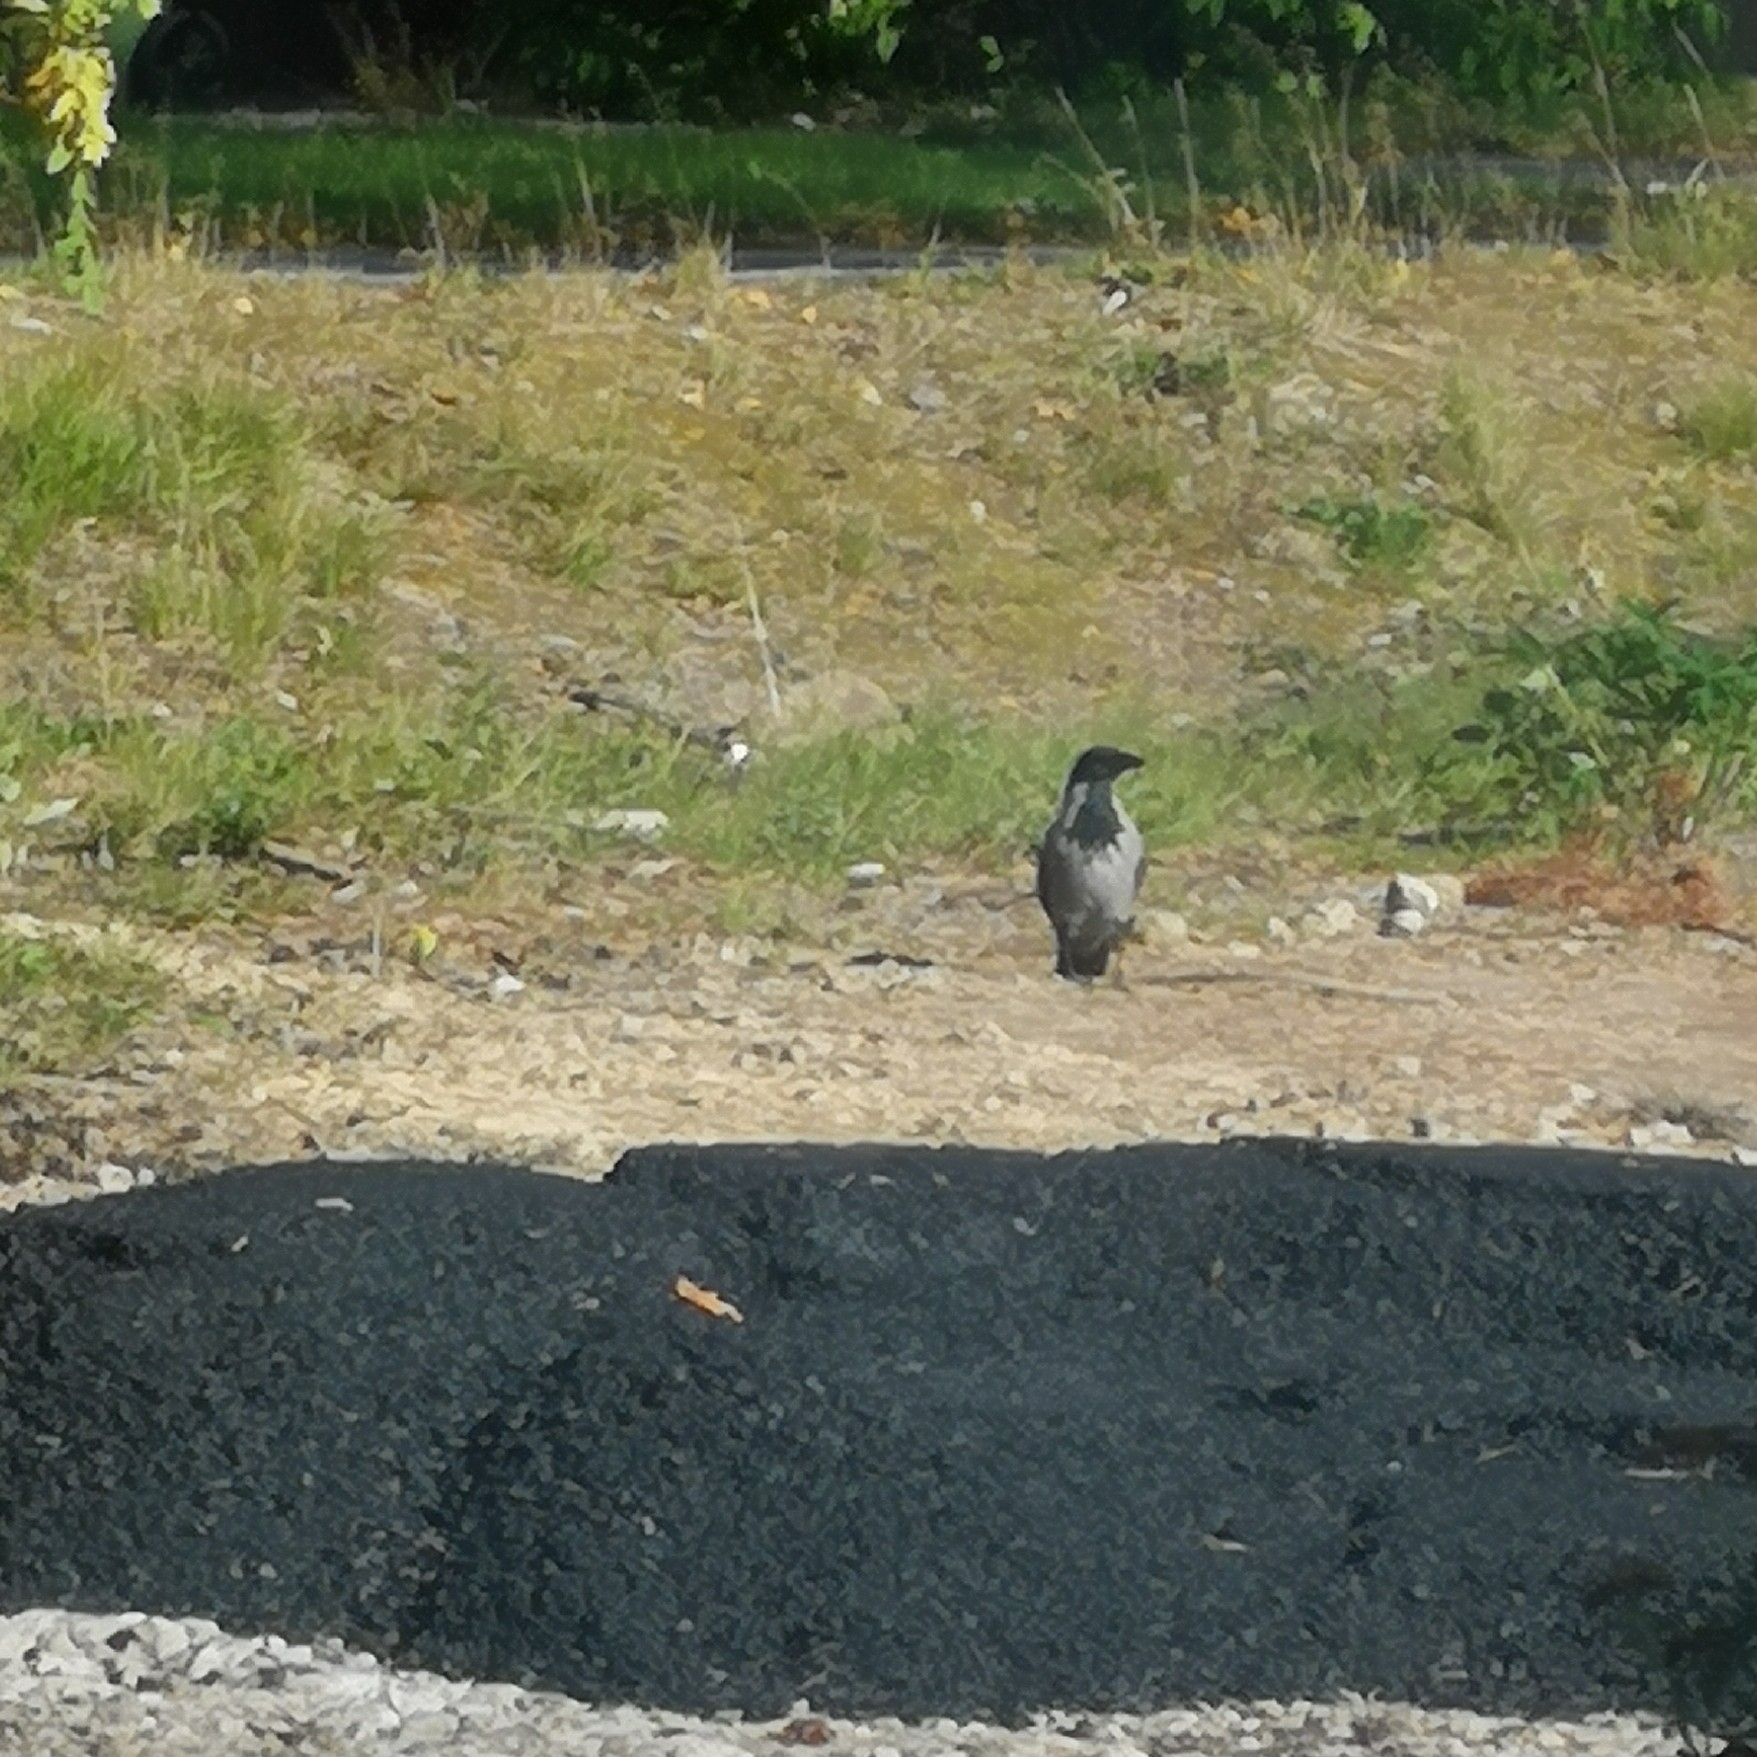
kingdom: Animalia
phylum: Chordata
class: Aves
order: Passeriformes
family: Corvidae
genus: Corvus
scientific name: Corvus cornix
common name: Hooded crow
